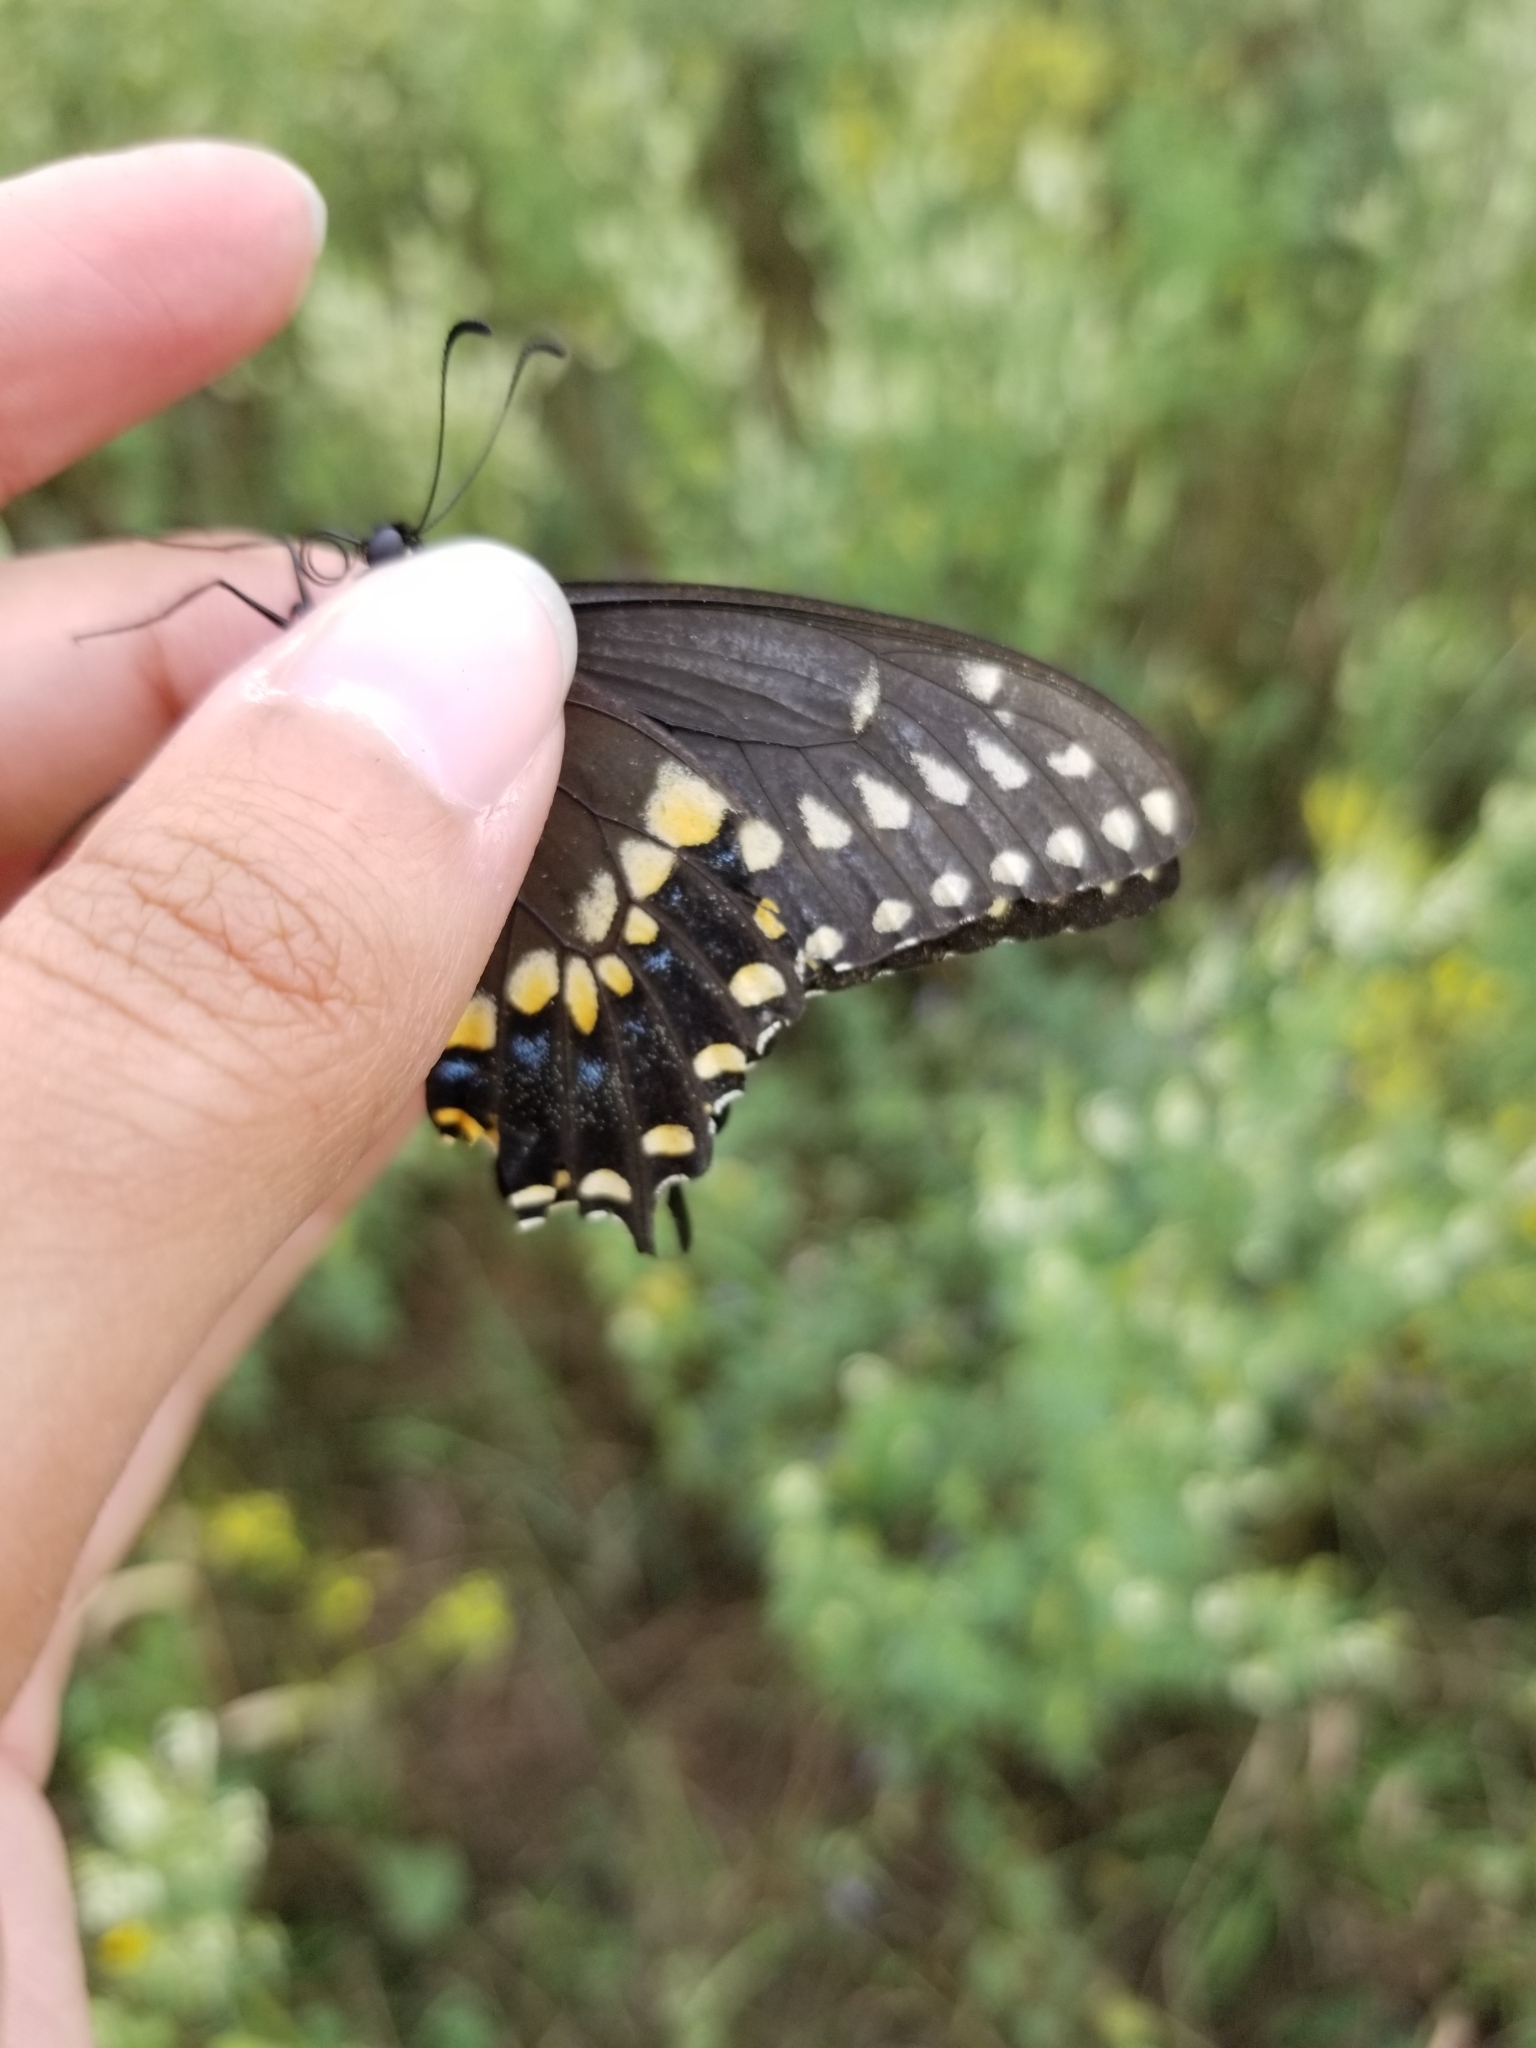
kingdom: Animalia
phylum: Arthropoda
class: Insecta
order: Lepidoptera
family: Papilionidae
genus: Papilio
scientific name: Papilio polyxenes
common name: Black swallowtail
